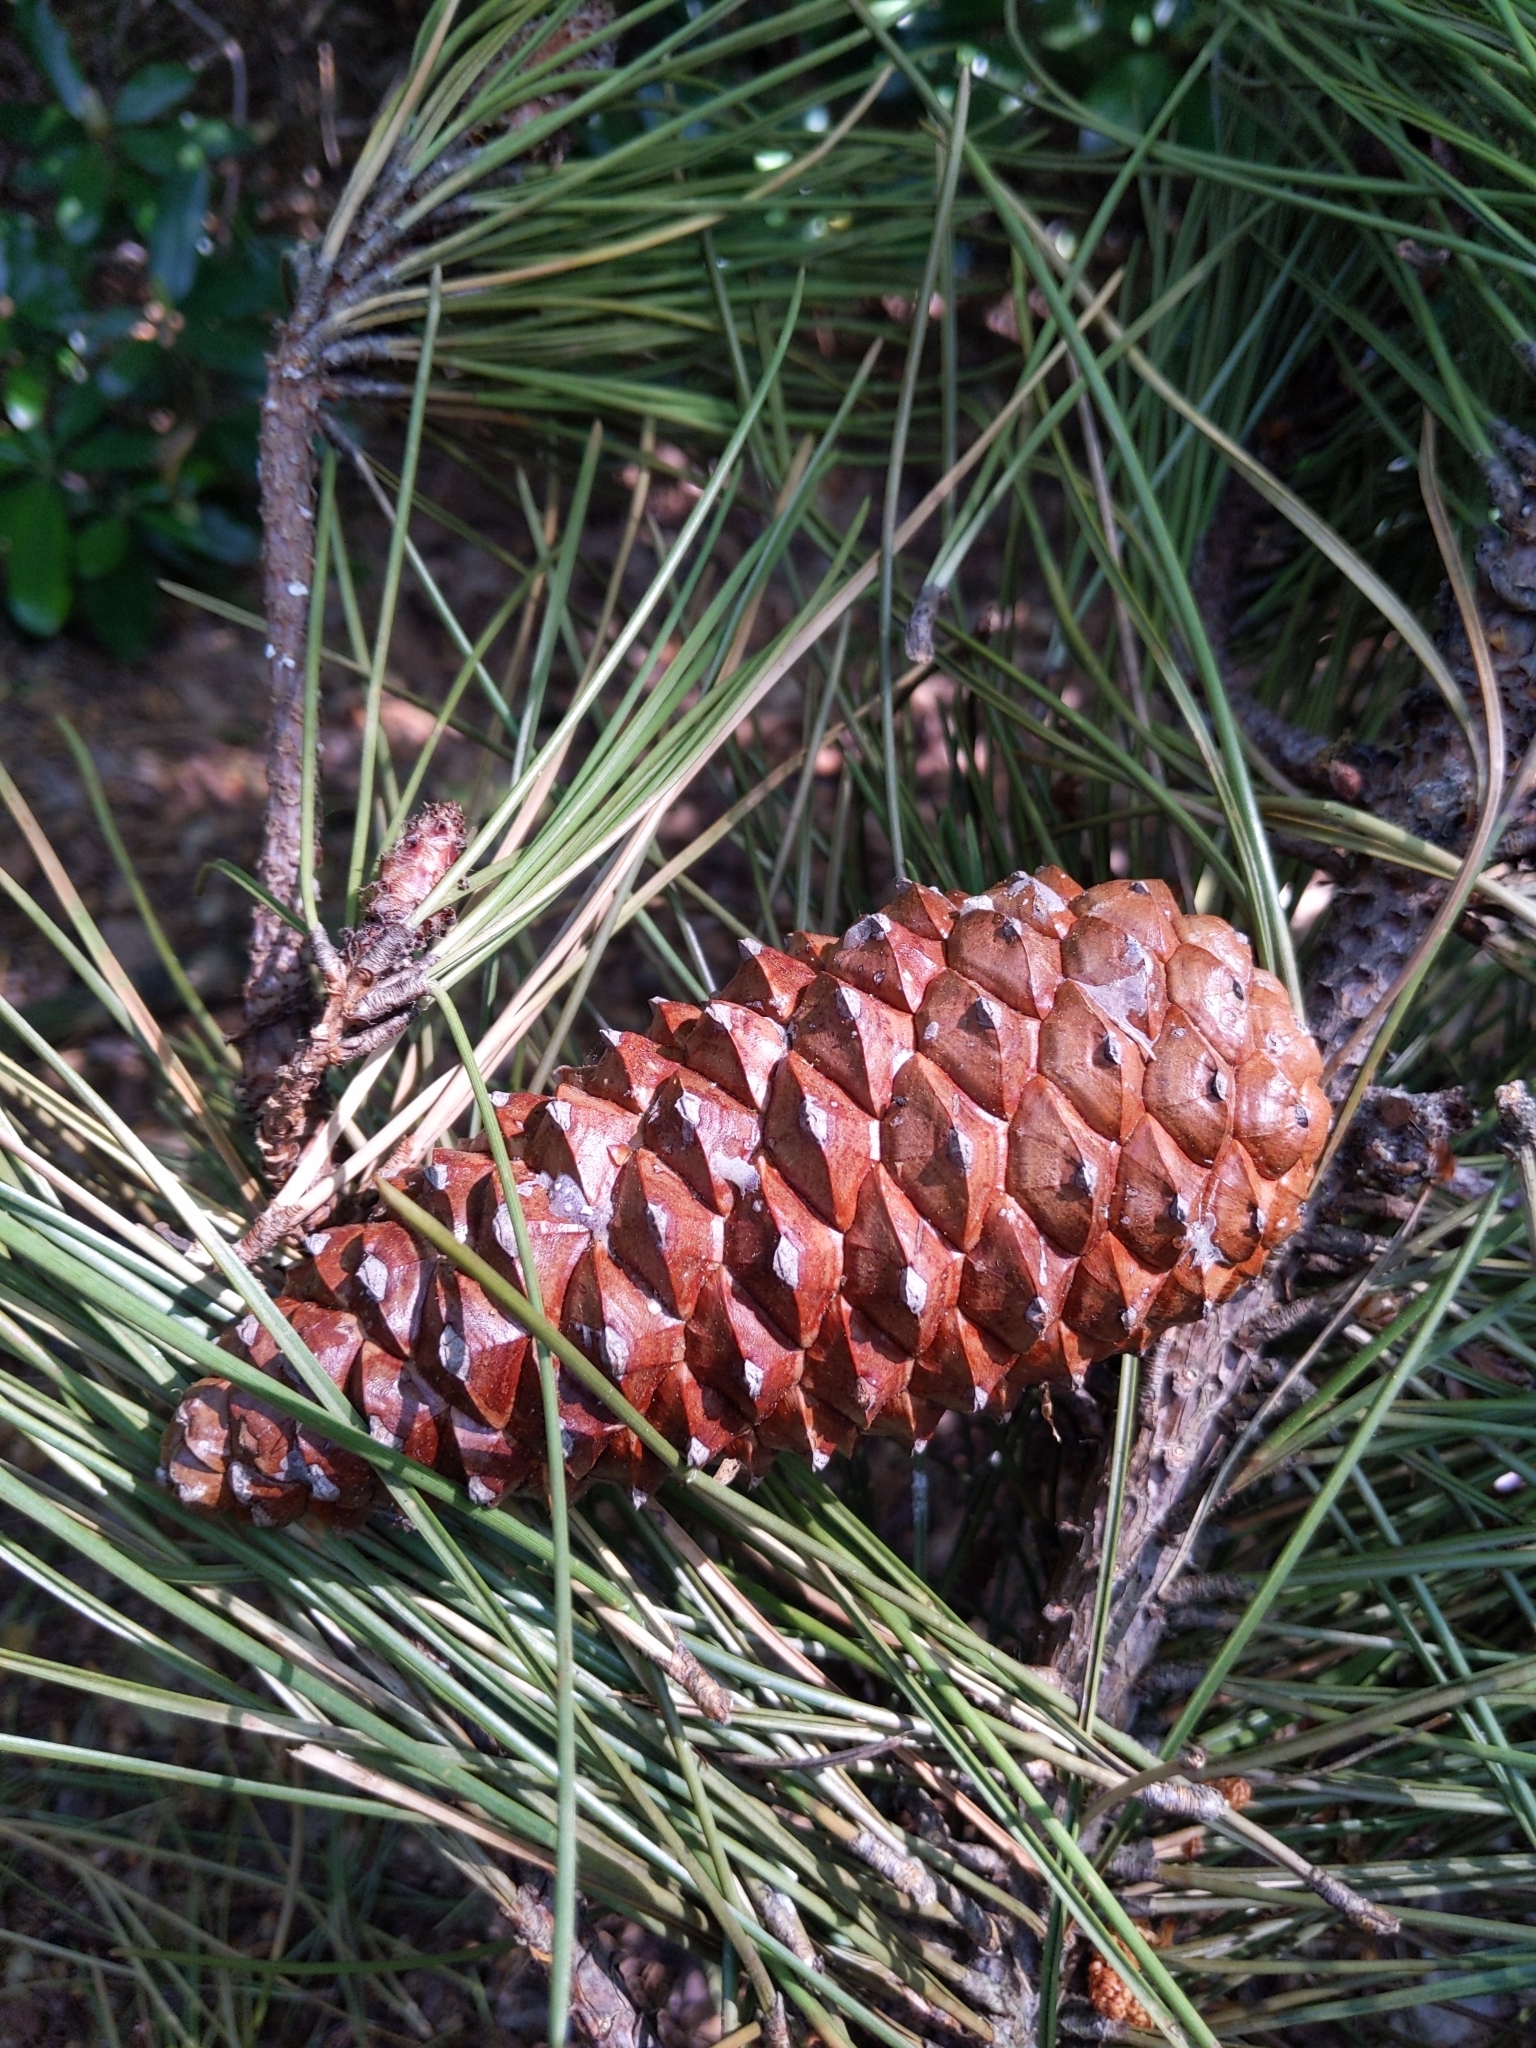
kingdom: Plantae
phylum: Tracheophyta
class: Pinopsida
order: Pinales
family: Pinaceae
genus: Pinus
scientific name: Pinus pinaster
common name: Maritime pine
